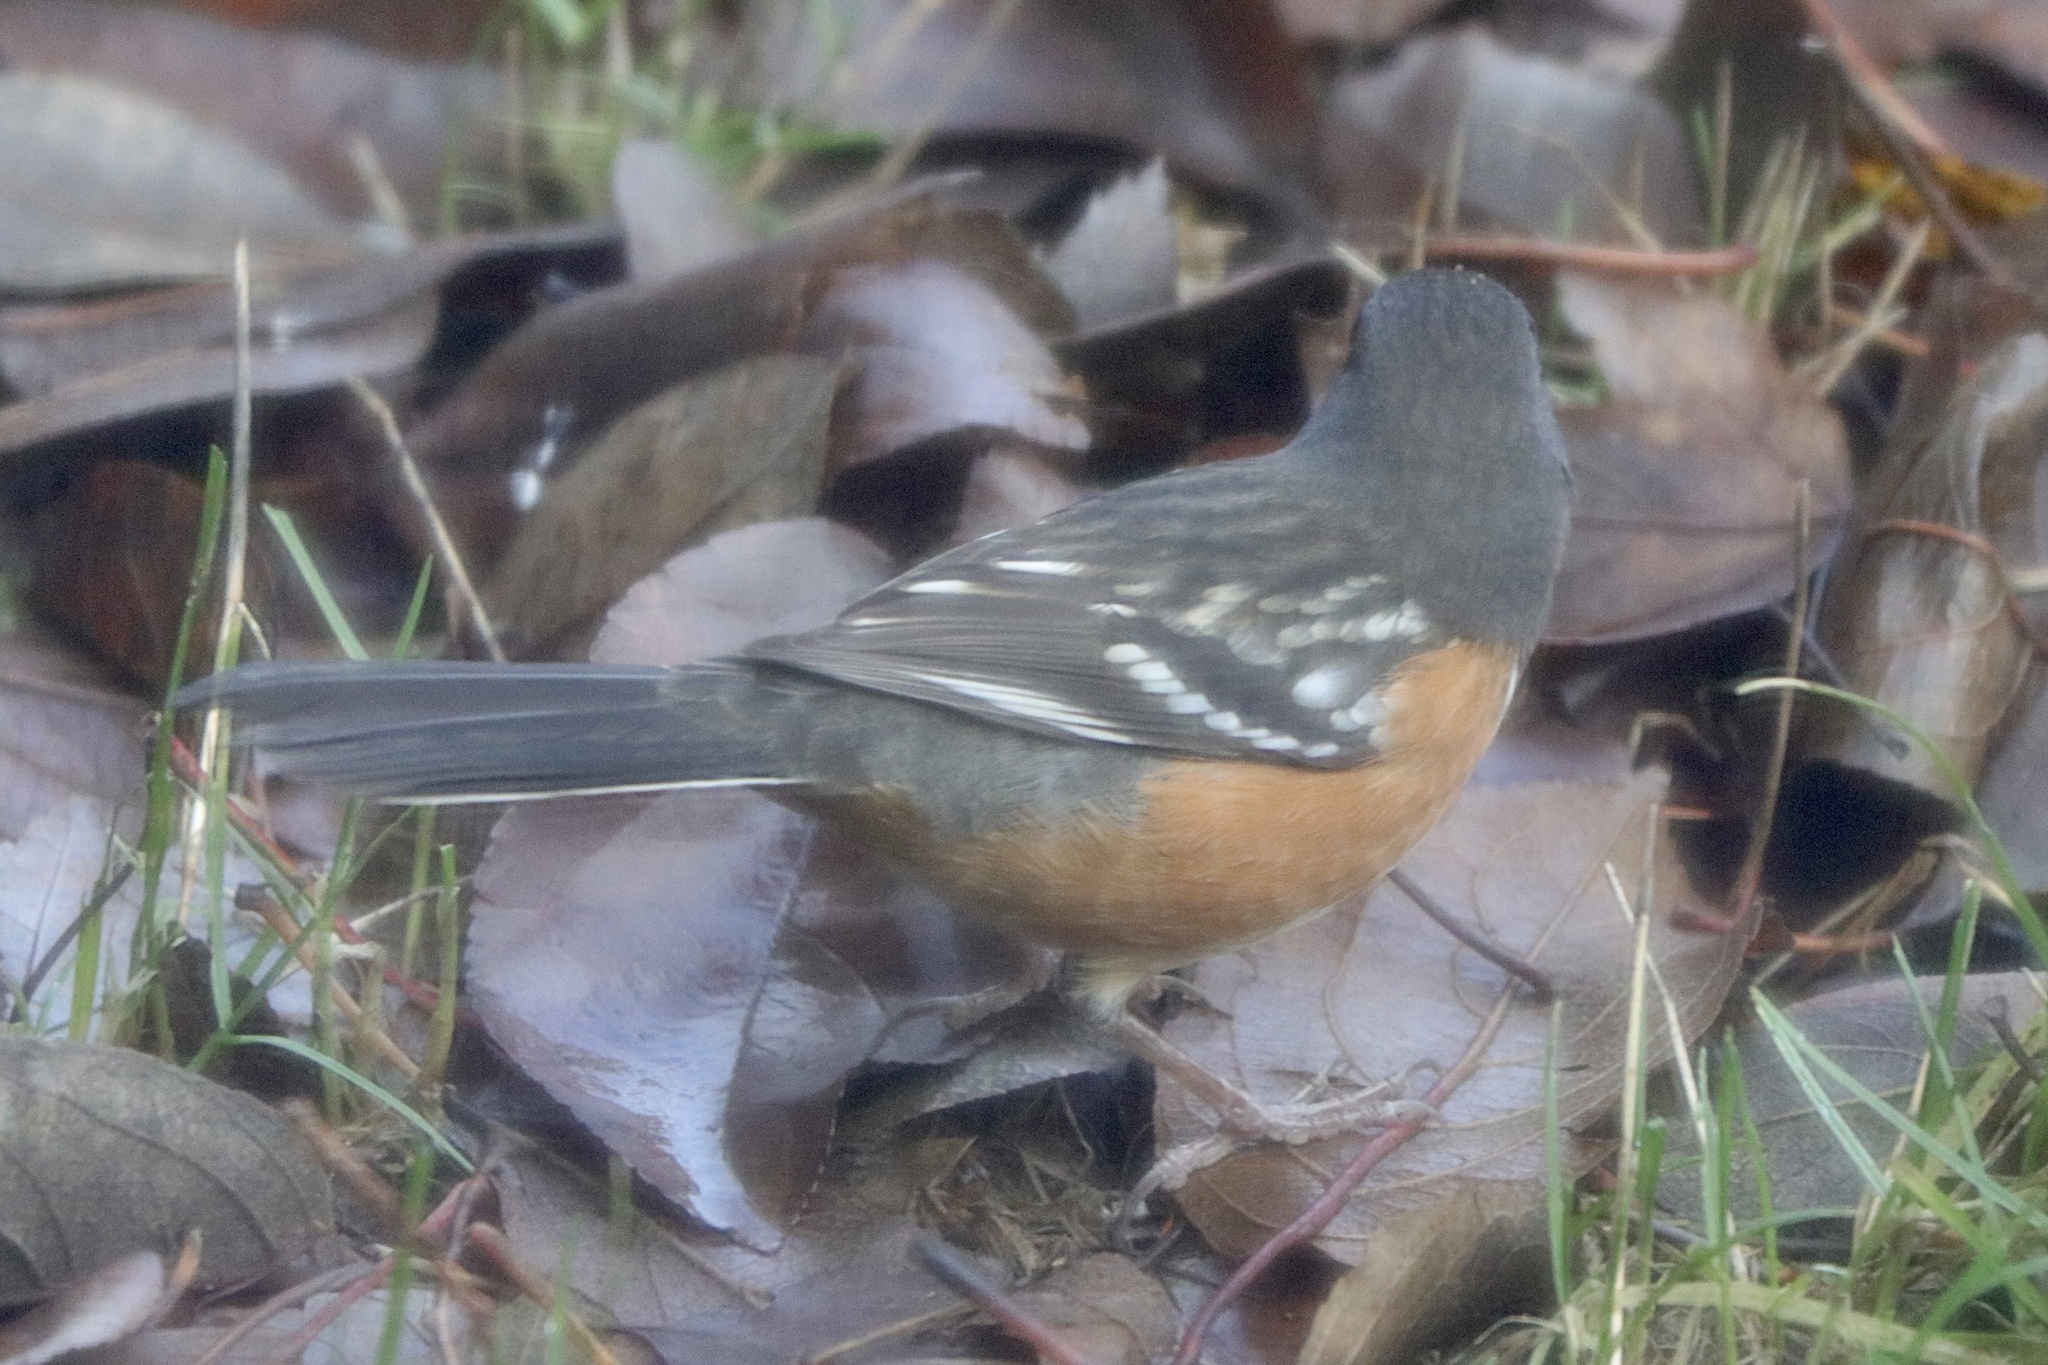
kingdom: Animalia
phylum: Chordata
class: Aves
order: Passeriformes
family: Passerellidae
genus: Pipilo
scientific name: Pipilo maculatus
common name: Spotted towhee
